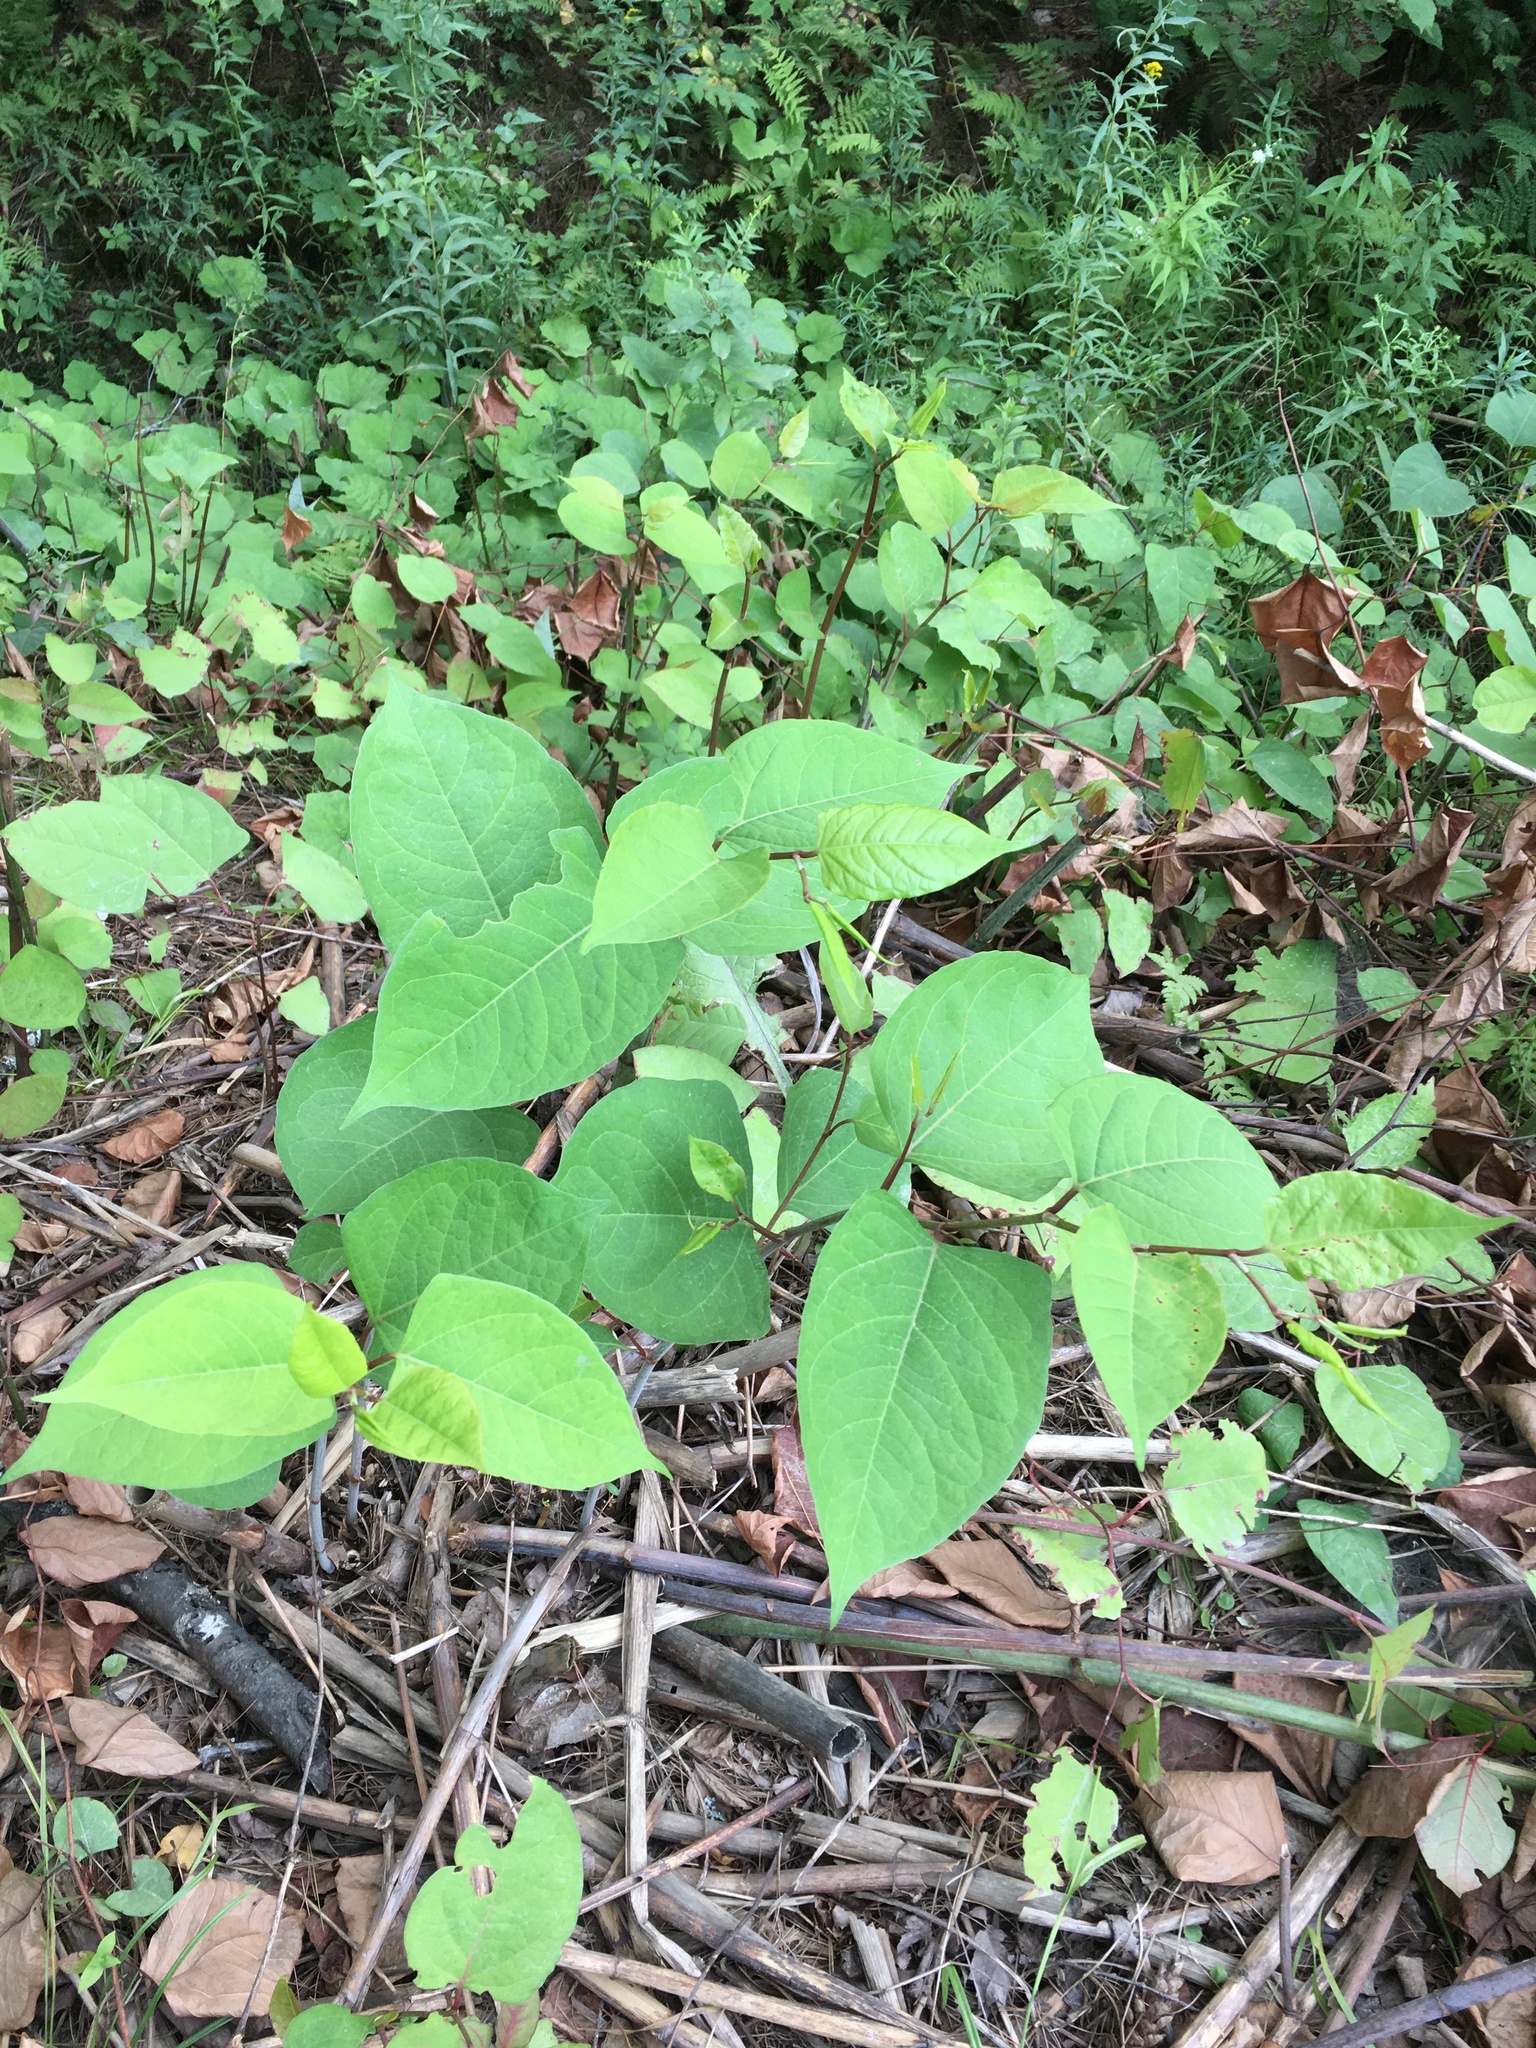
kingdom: Plantae
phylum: Tracheophyta
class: Magnoliopsida
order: Caryophyllales
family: Polygonaceae
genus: Reynoutria
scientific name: Reynoutria japonica
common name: Japanese knotweed
